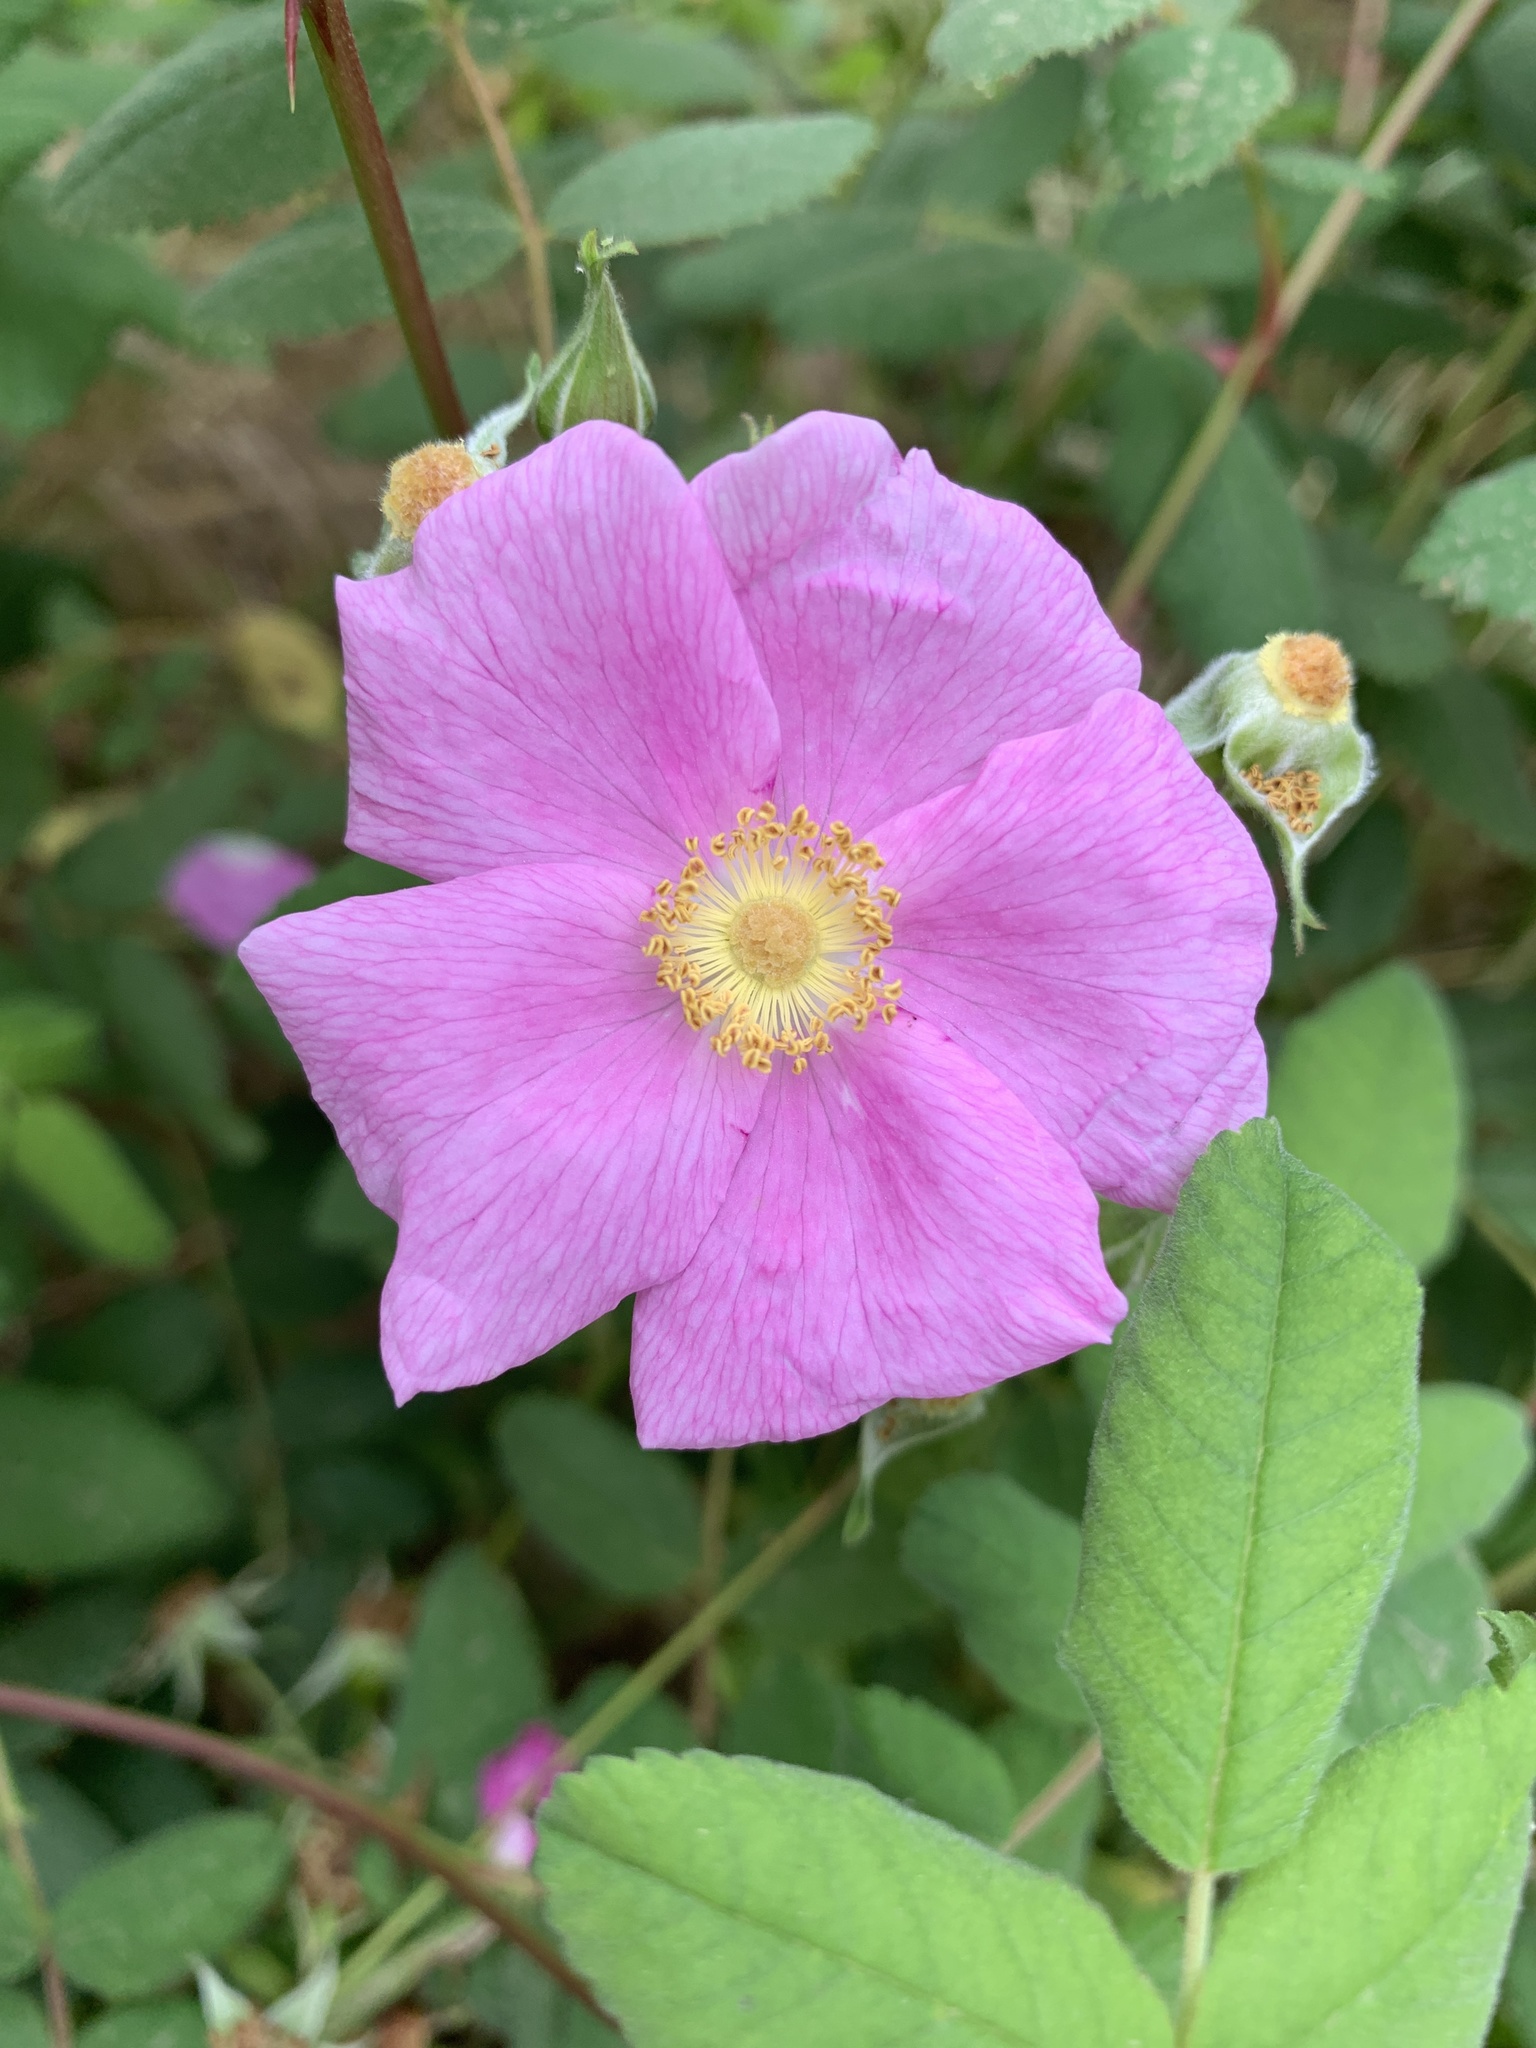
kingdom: Plantae
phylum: Tracheophyta
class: Magnoliopsida
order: Rosales
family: Rosaceae
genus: Rosa
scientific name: Rosa californica
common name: California rose
